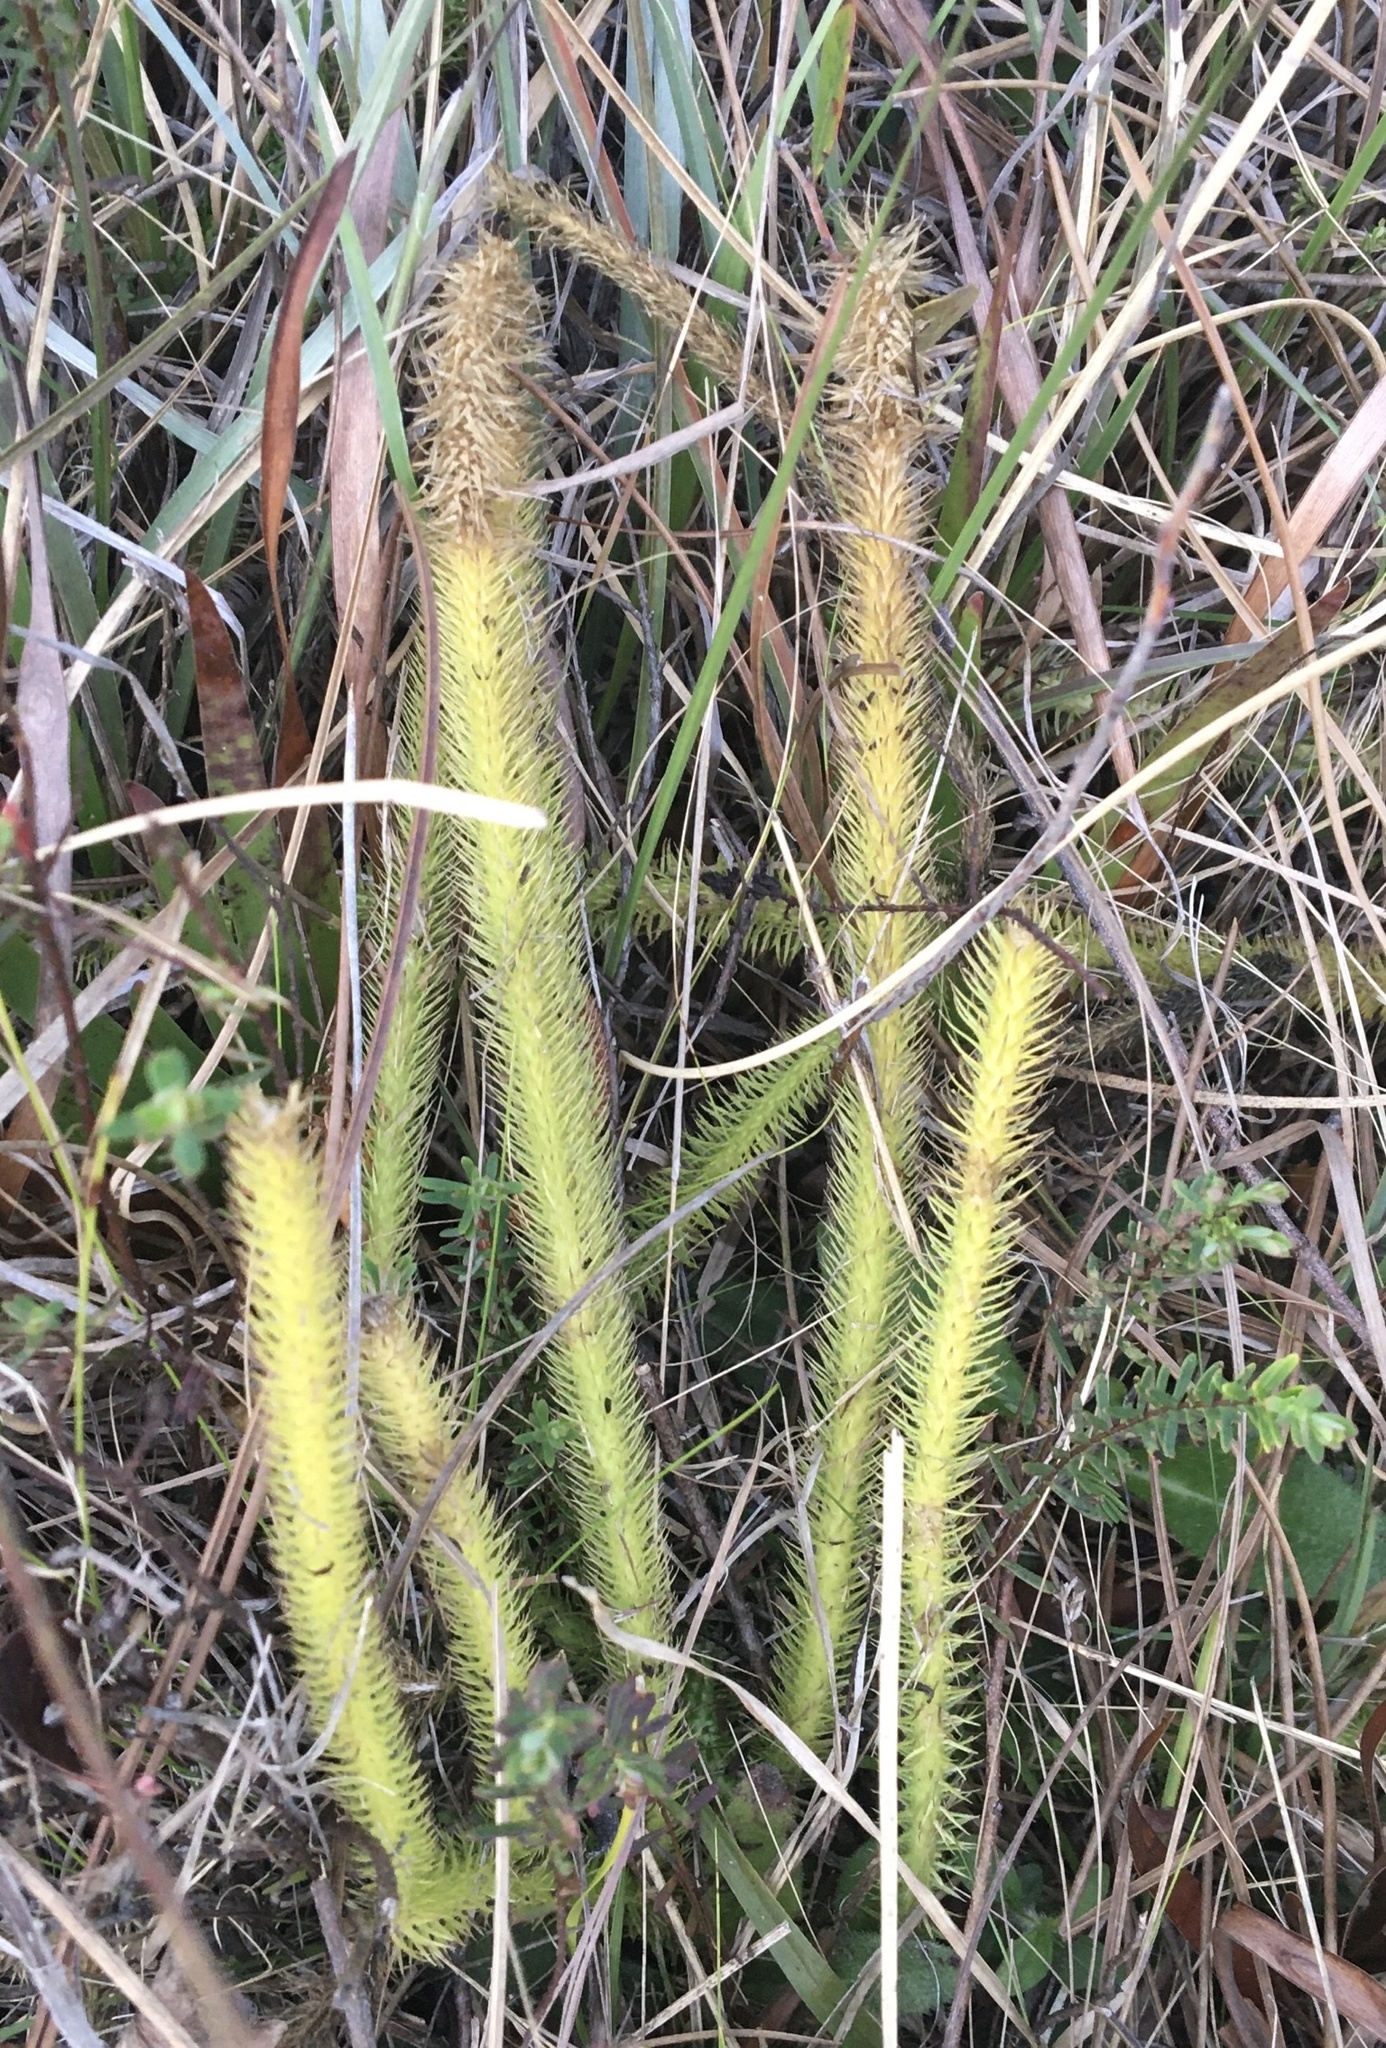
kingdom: Plantae
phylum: Tracheophyta
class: Lycopodiopsida
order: Lycopodiales
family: Lycopodiaceae
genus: Lycopodiella
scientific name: Lycopodiella alopecuroides
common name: Foxtail clubmoss
